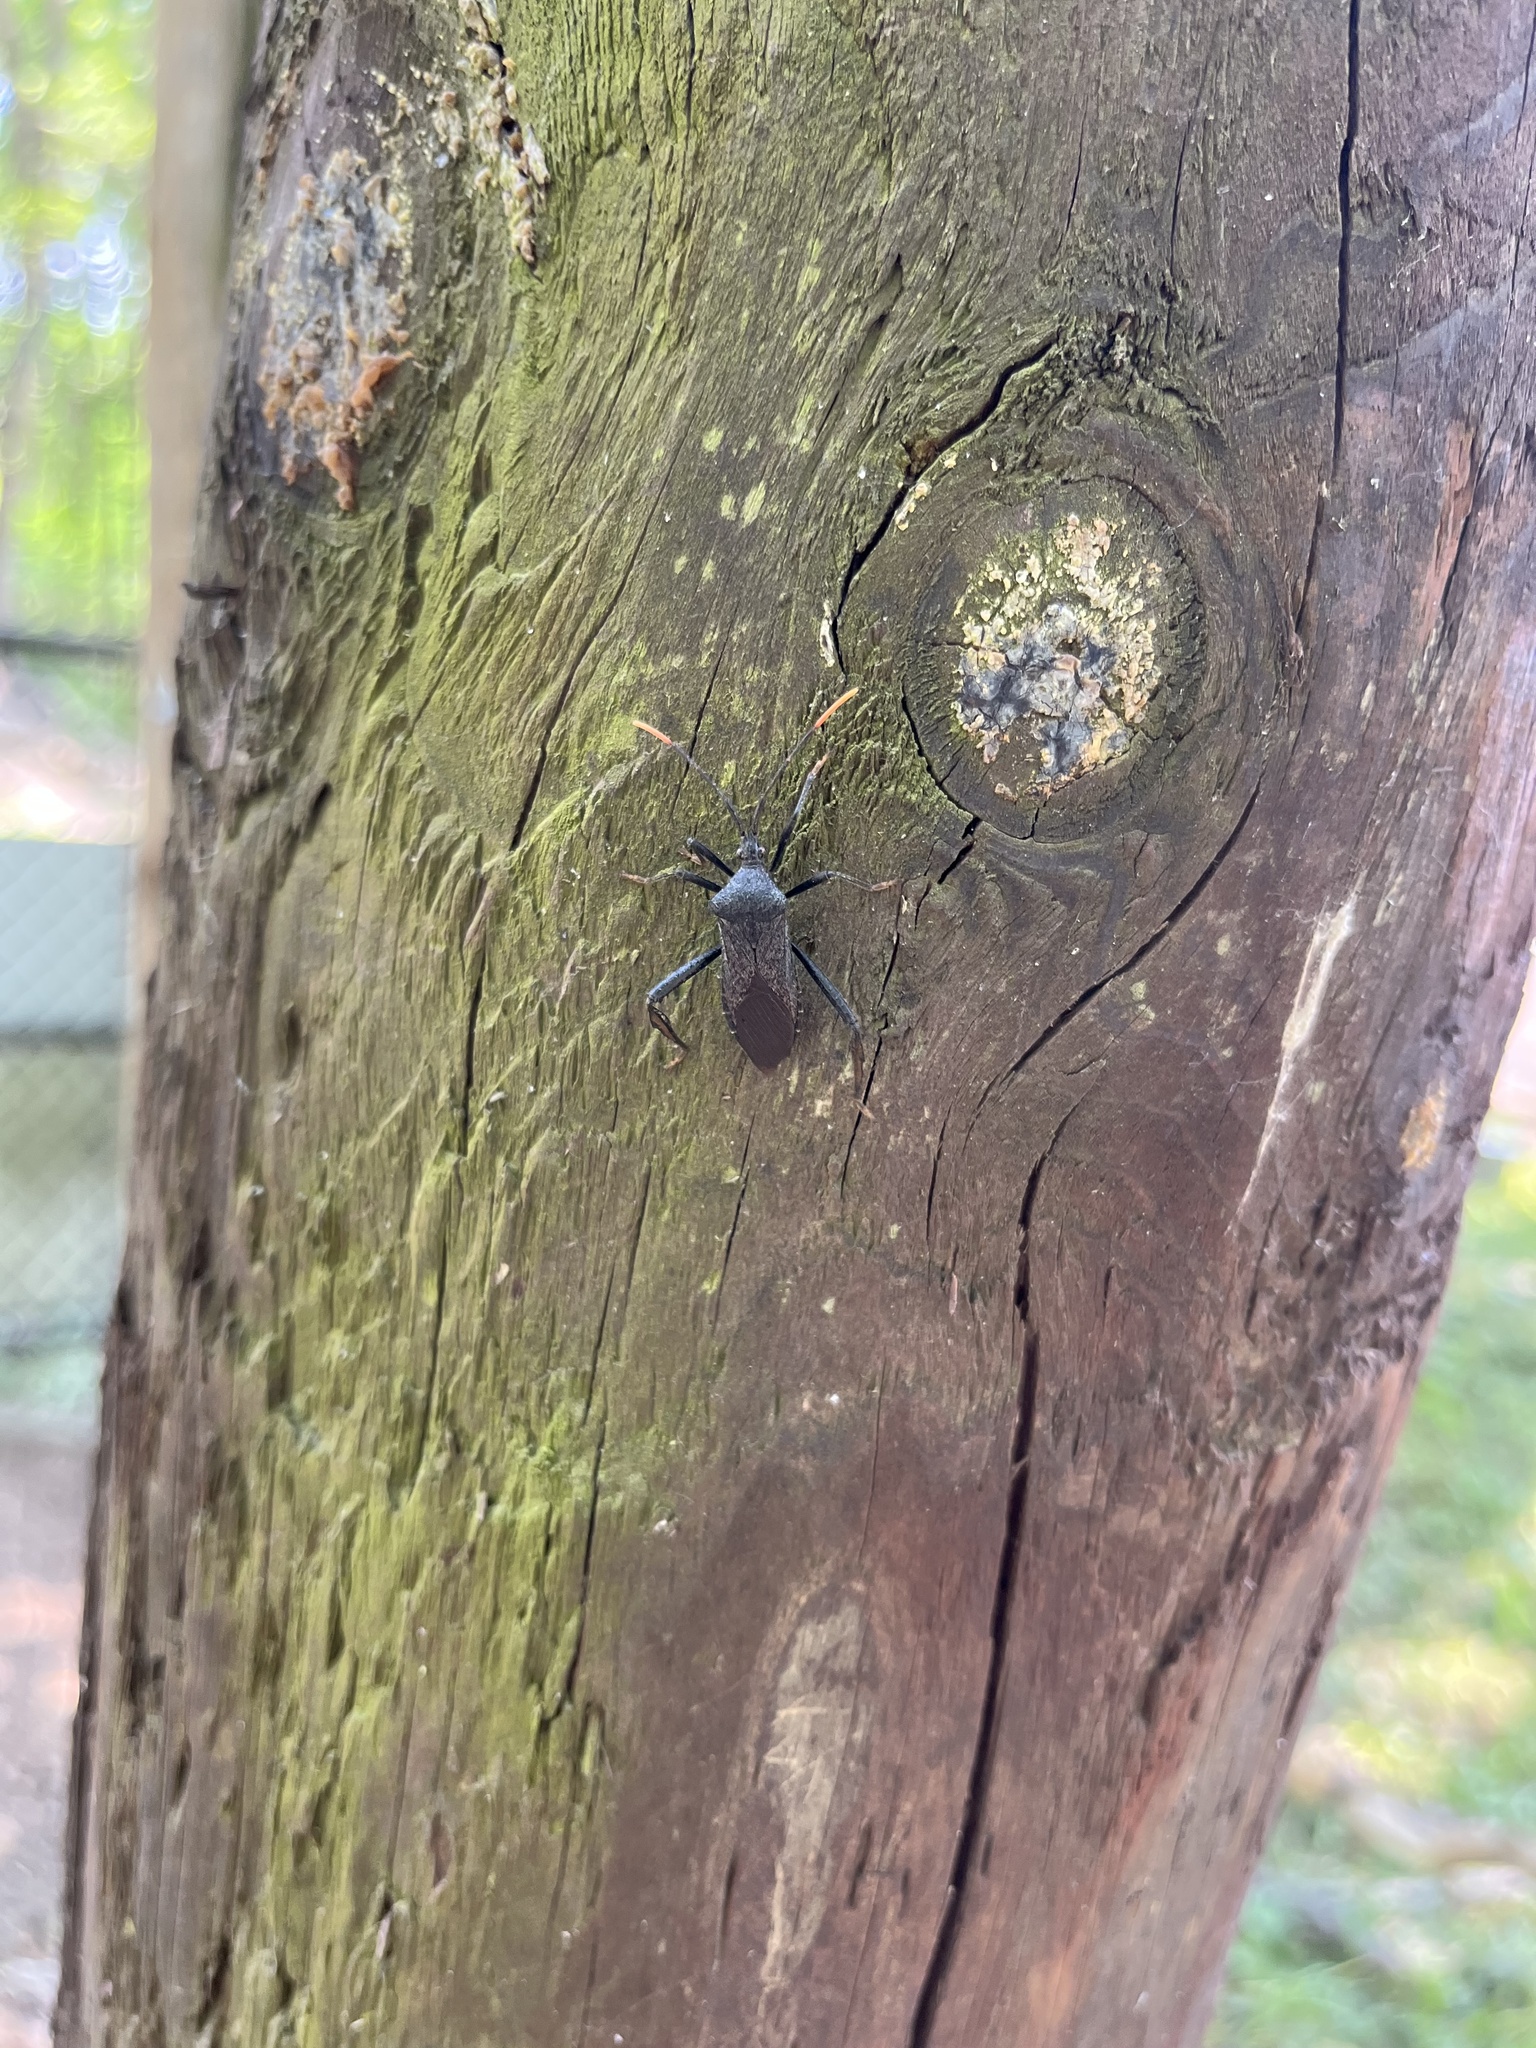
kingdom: Animalia
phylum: Arthropoda
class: Insecta
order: Hemiptera
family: Coreidae
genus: Acanthocephala
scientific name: Acanthocephala terminalis
